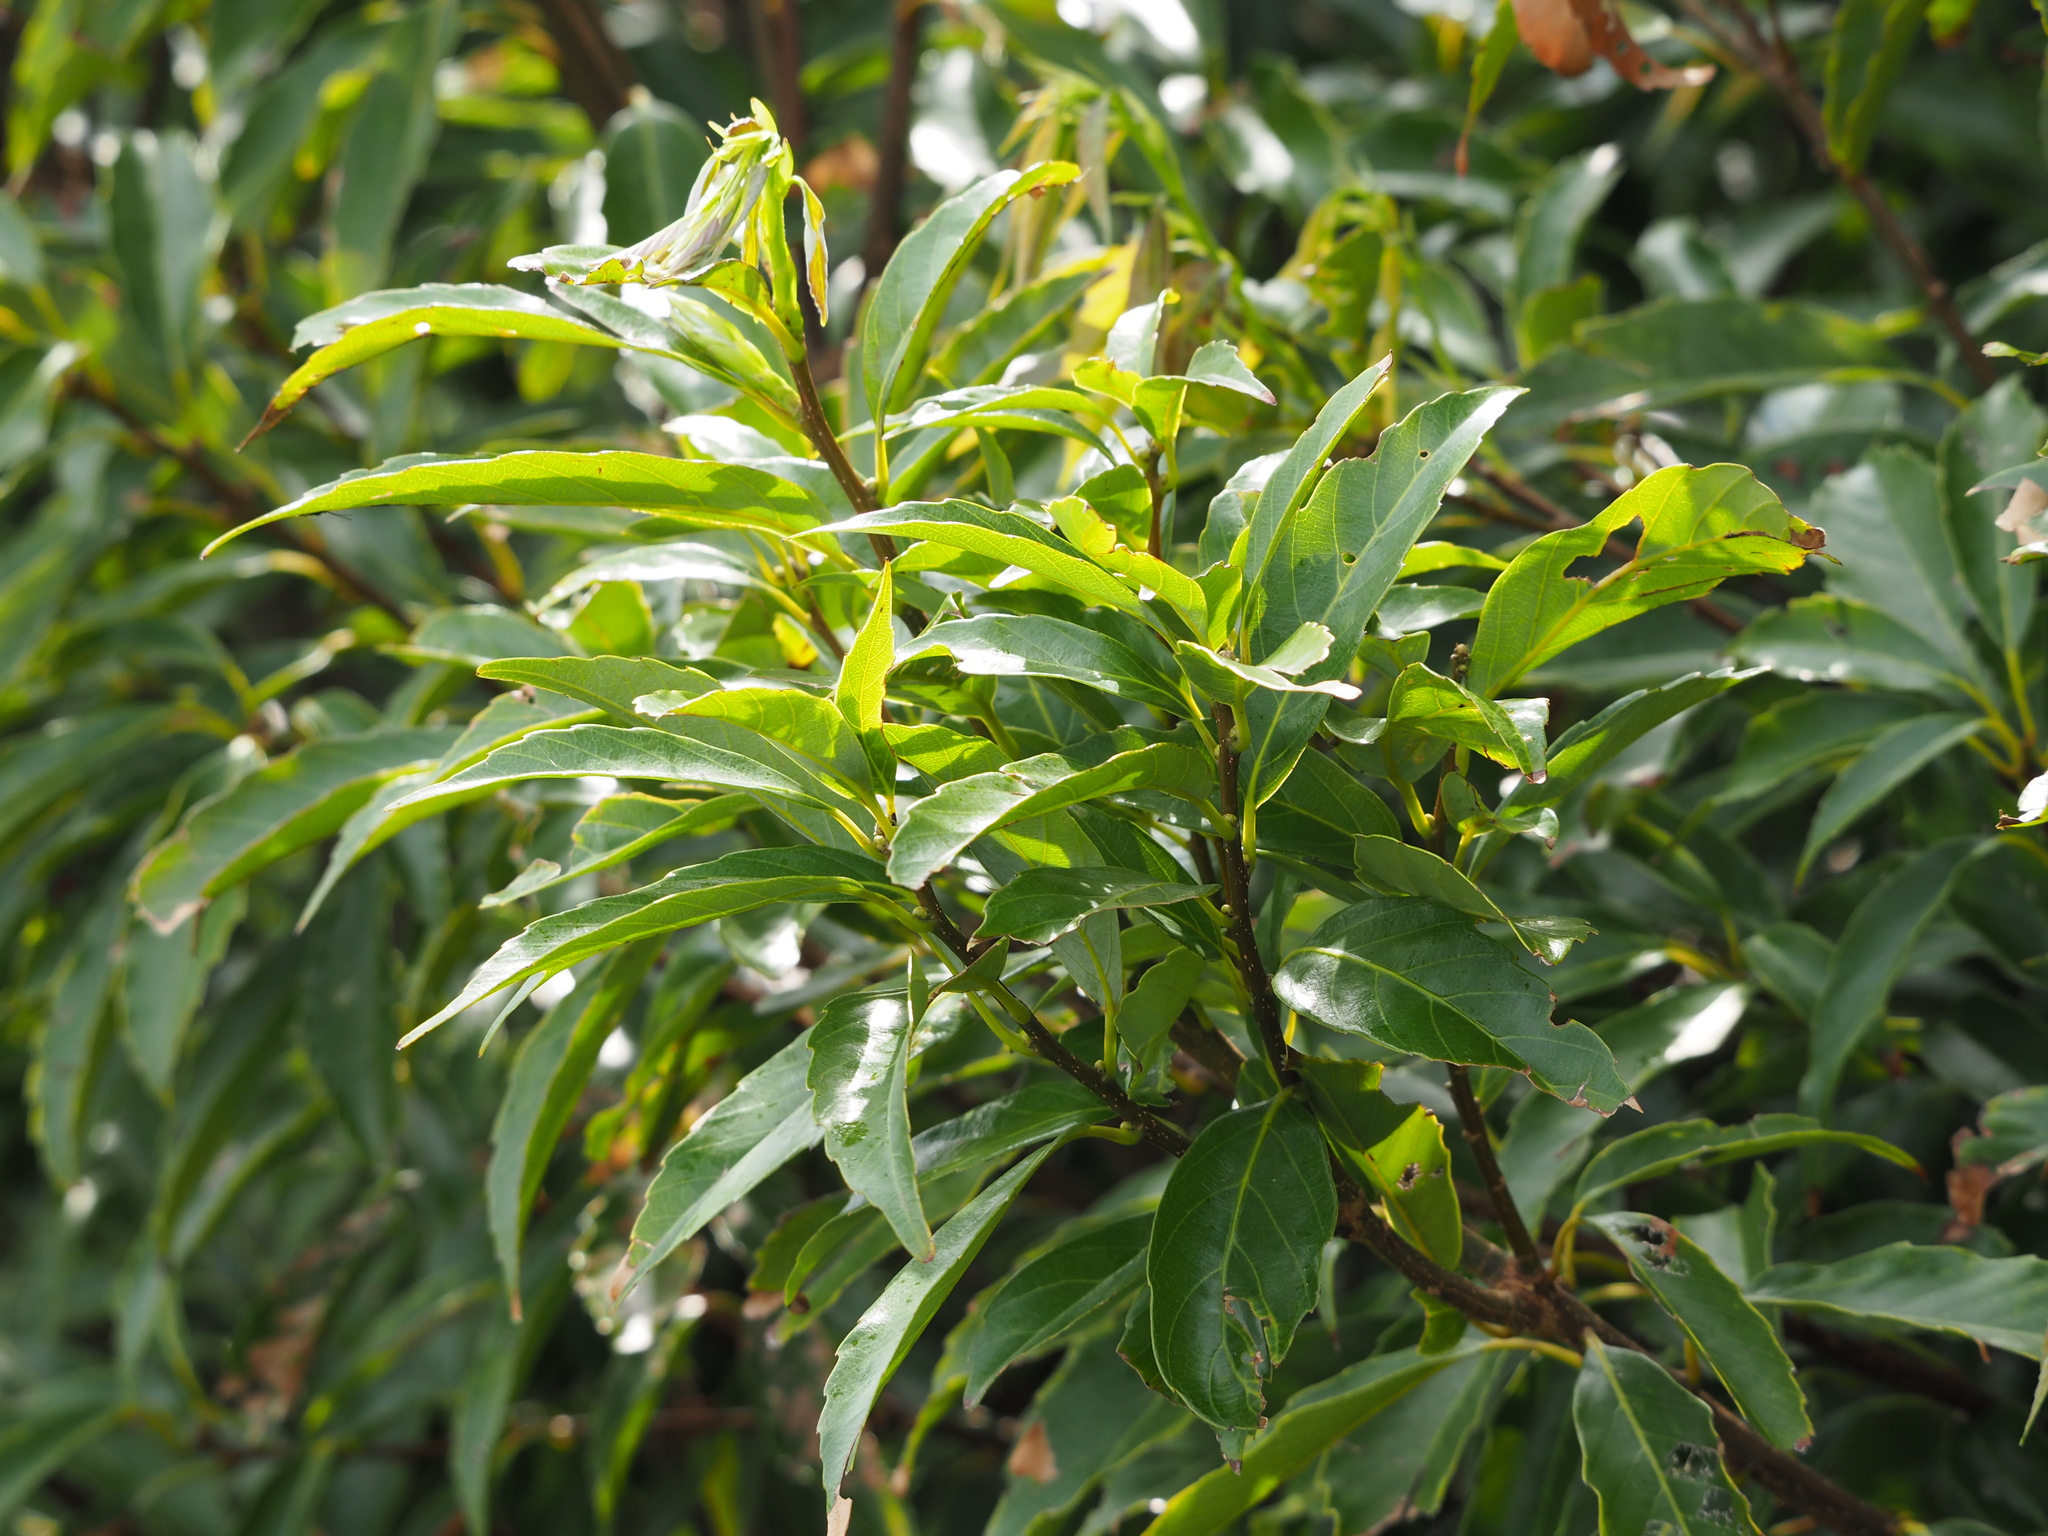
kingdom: Plantae
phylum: Tracheophyta
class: Magnoliopsida
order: Fagales
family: Fagaceae
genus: Quercus
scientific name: Quercus glauca
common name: Ring-cup oak
